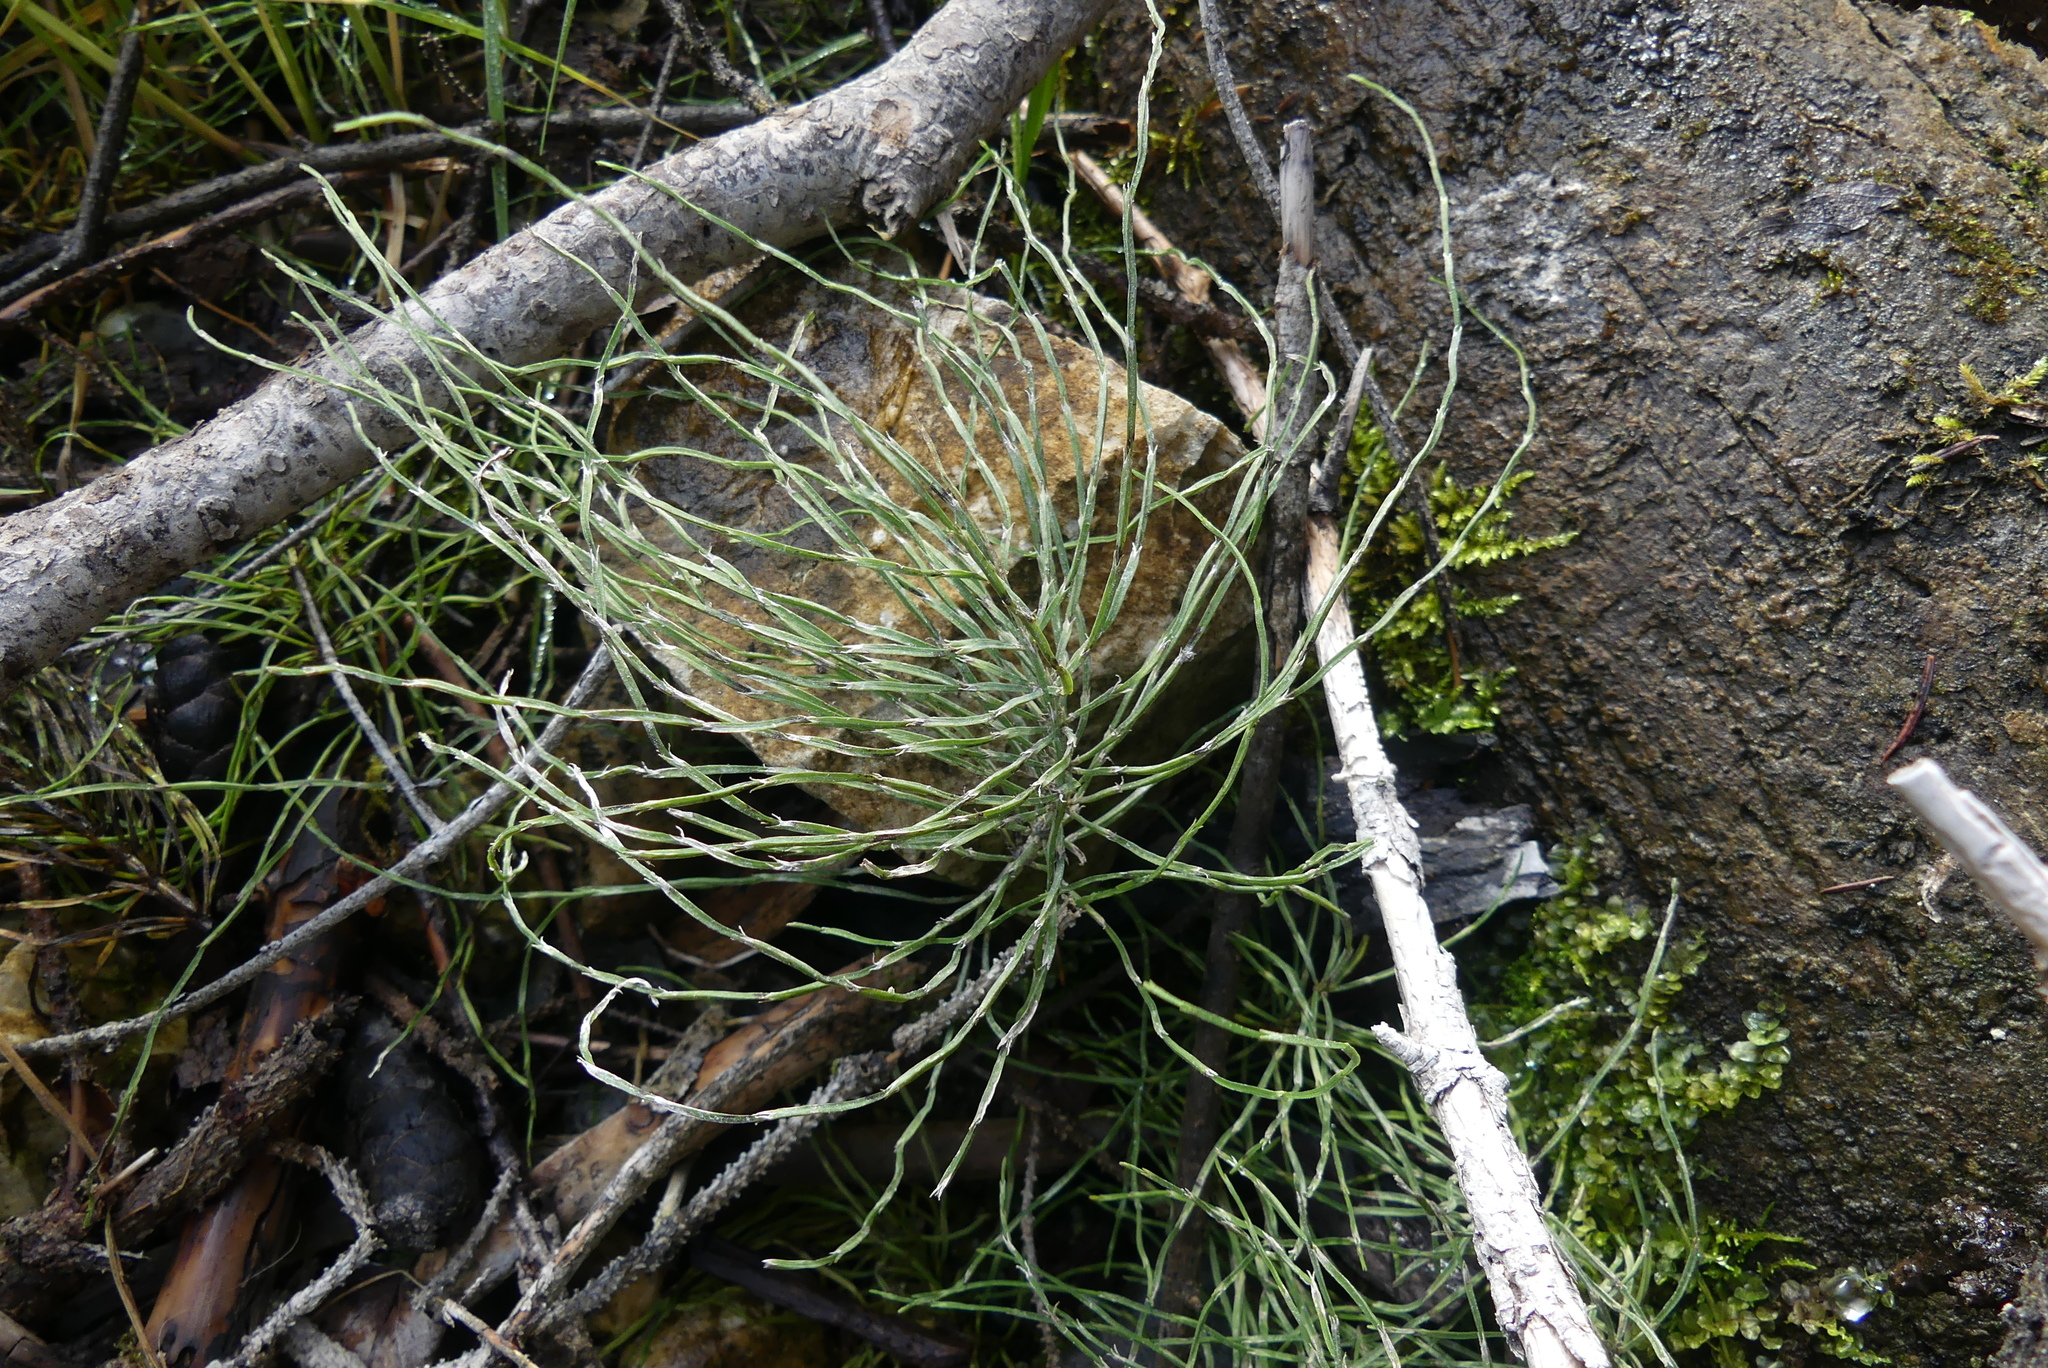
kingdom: Plantae
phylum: Tracheophyta
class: Polypodiopsida
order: Equisetales
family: Equisetaceae
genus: Equisetum
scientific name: Equisetum arvense
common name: Field horsetail
